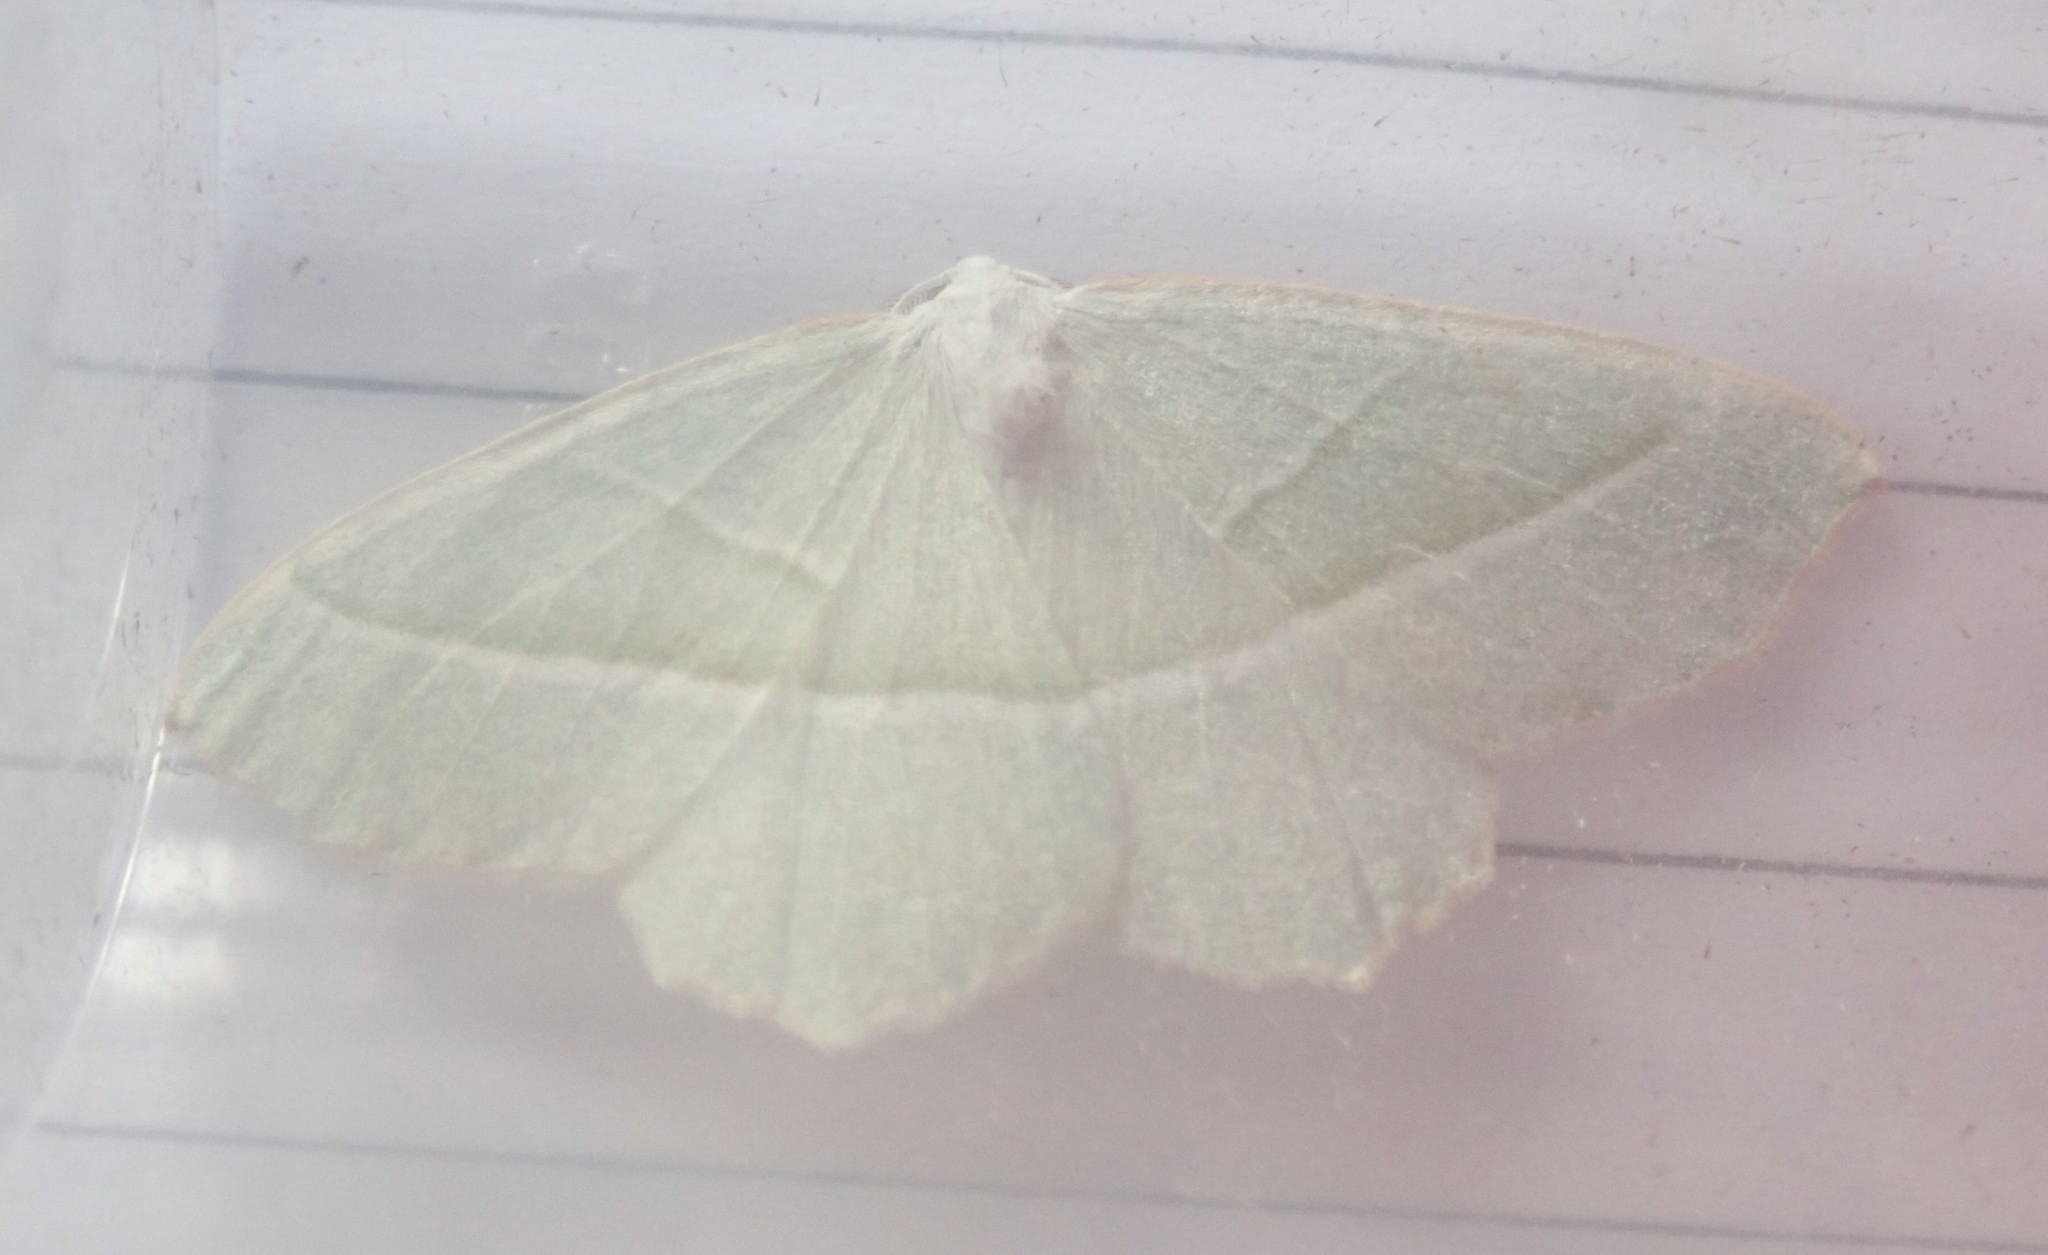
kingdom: Animalia
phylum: Arthropoda
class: Insecta
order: Lepidoptera
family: Geometridae
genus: Campaea
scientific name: Campaea margaritaria
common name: Light emerald
